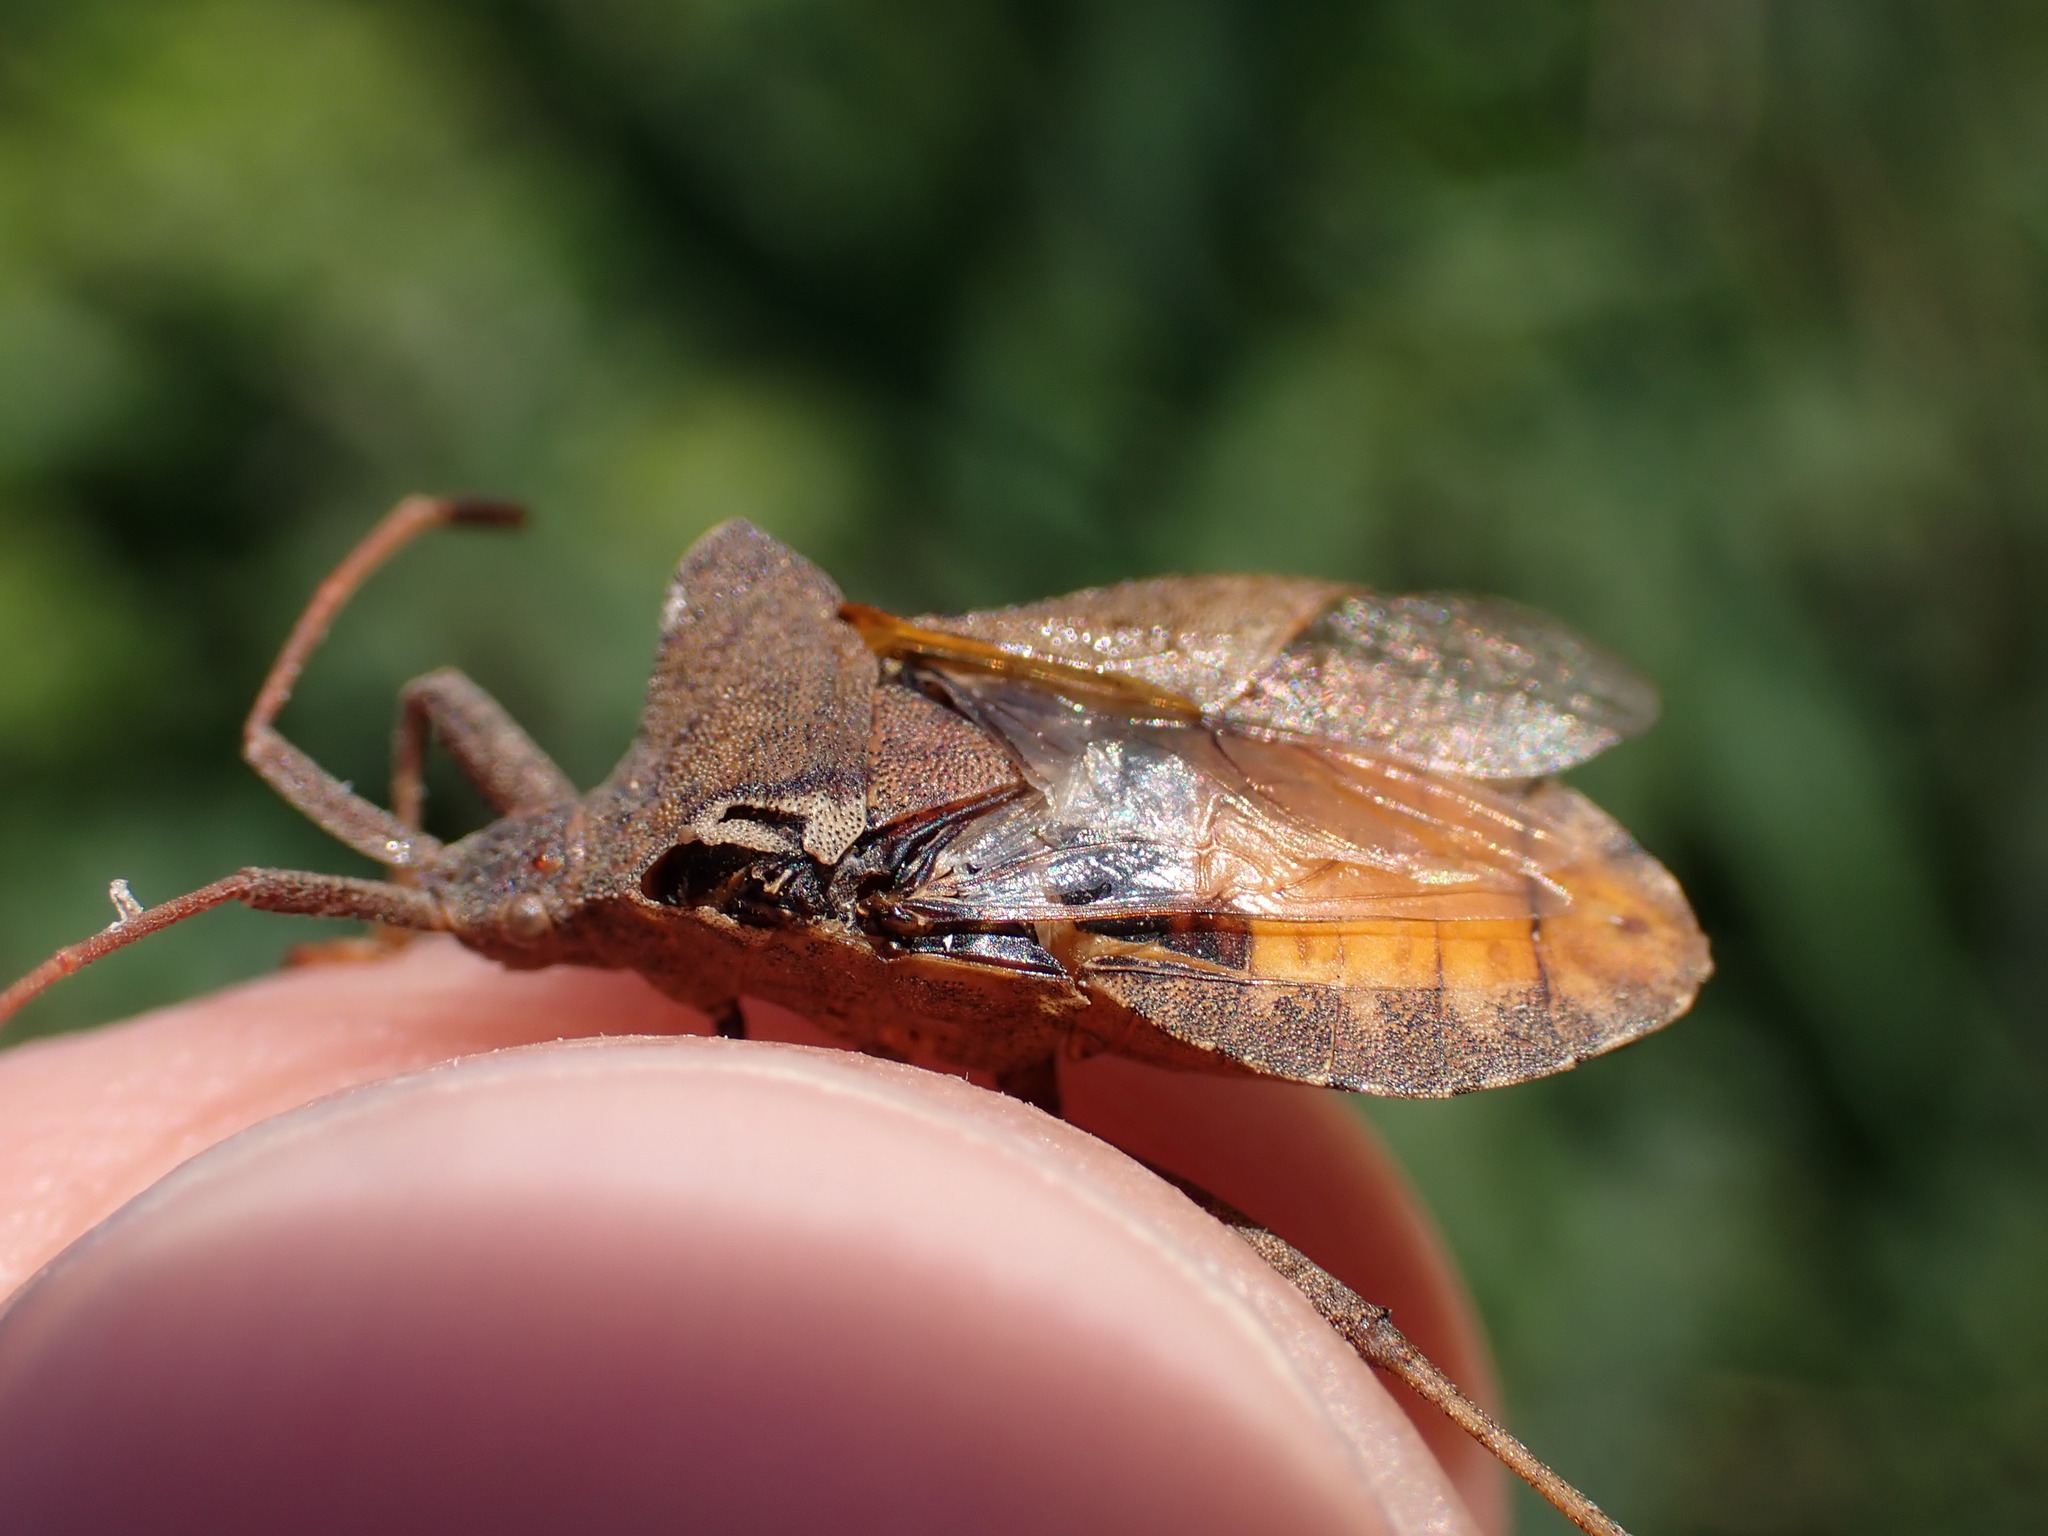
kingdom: Animalia
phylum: Arthropoda
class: Insecta
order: Hemiptera
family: Coreidae
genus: Coreus
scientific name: Coreus marginatus
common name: Dock bug
